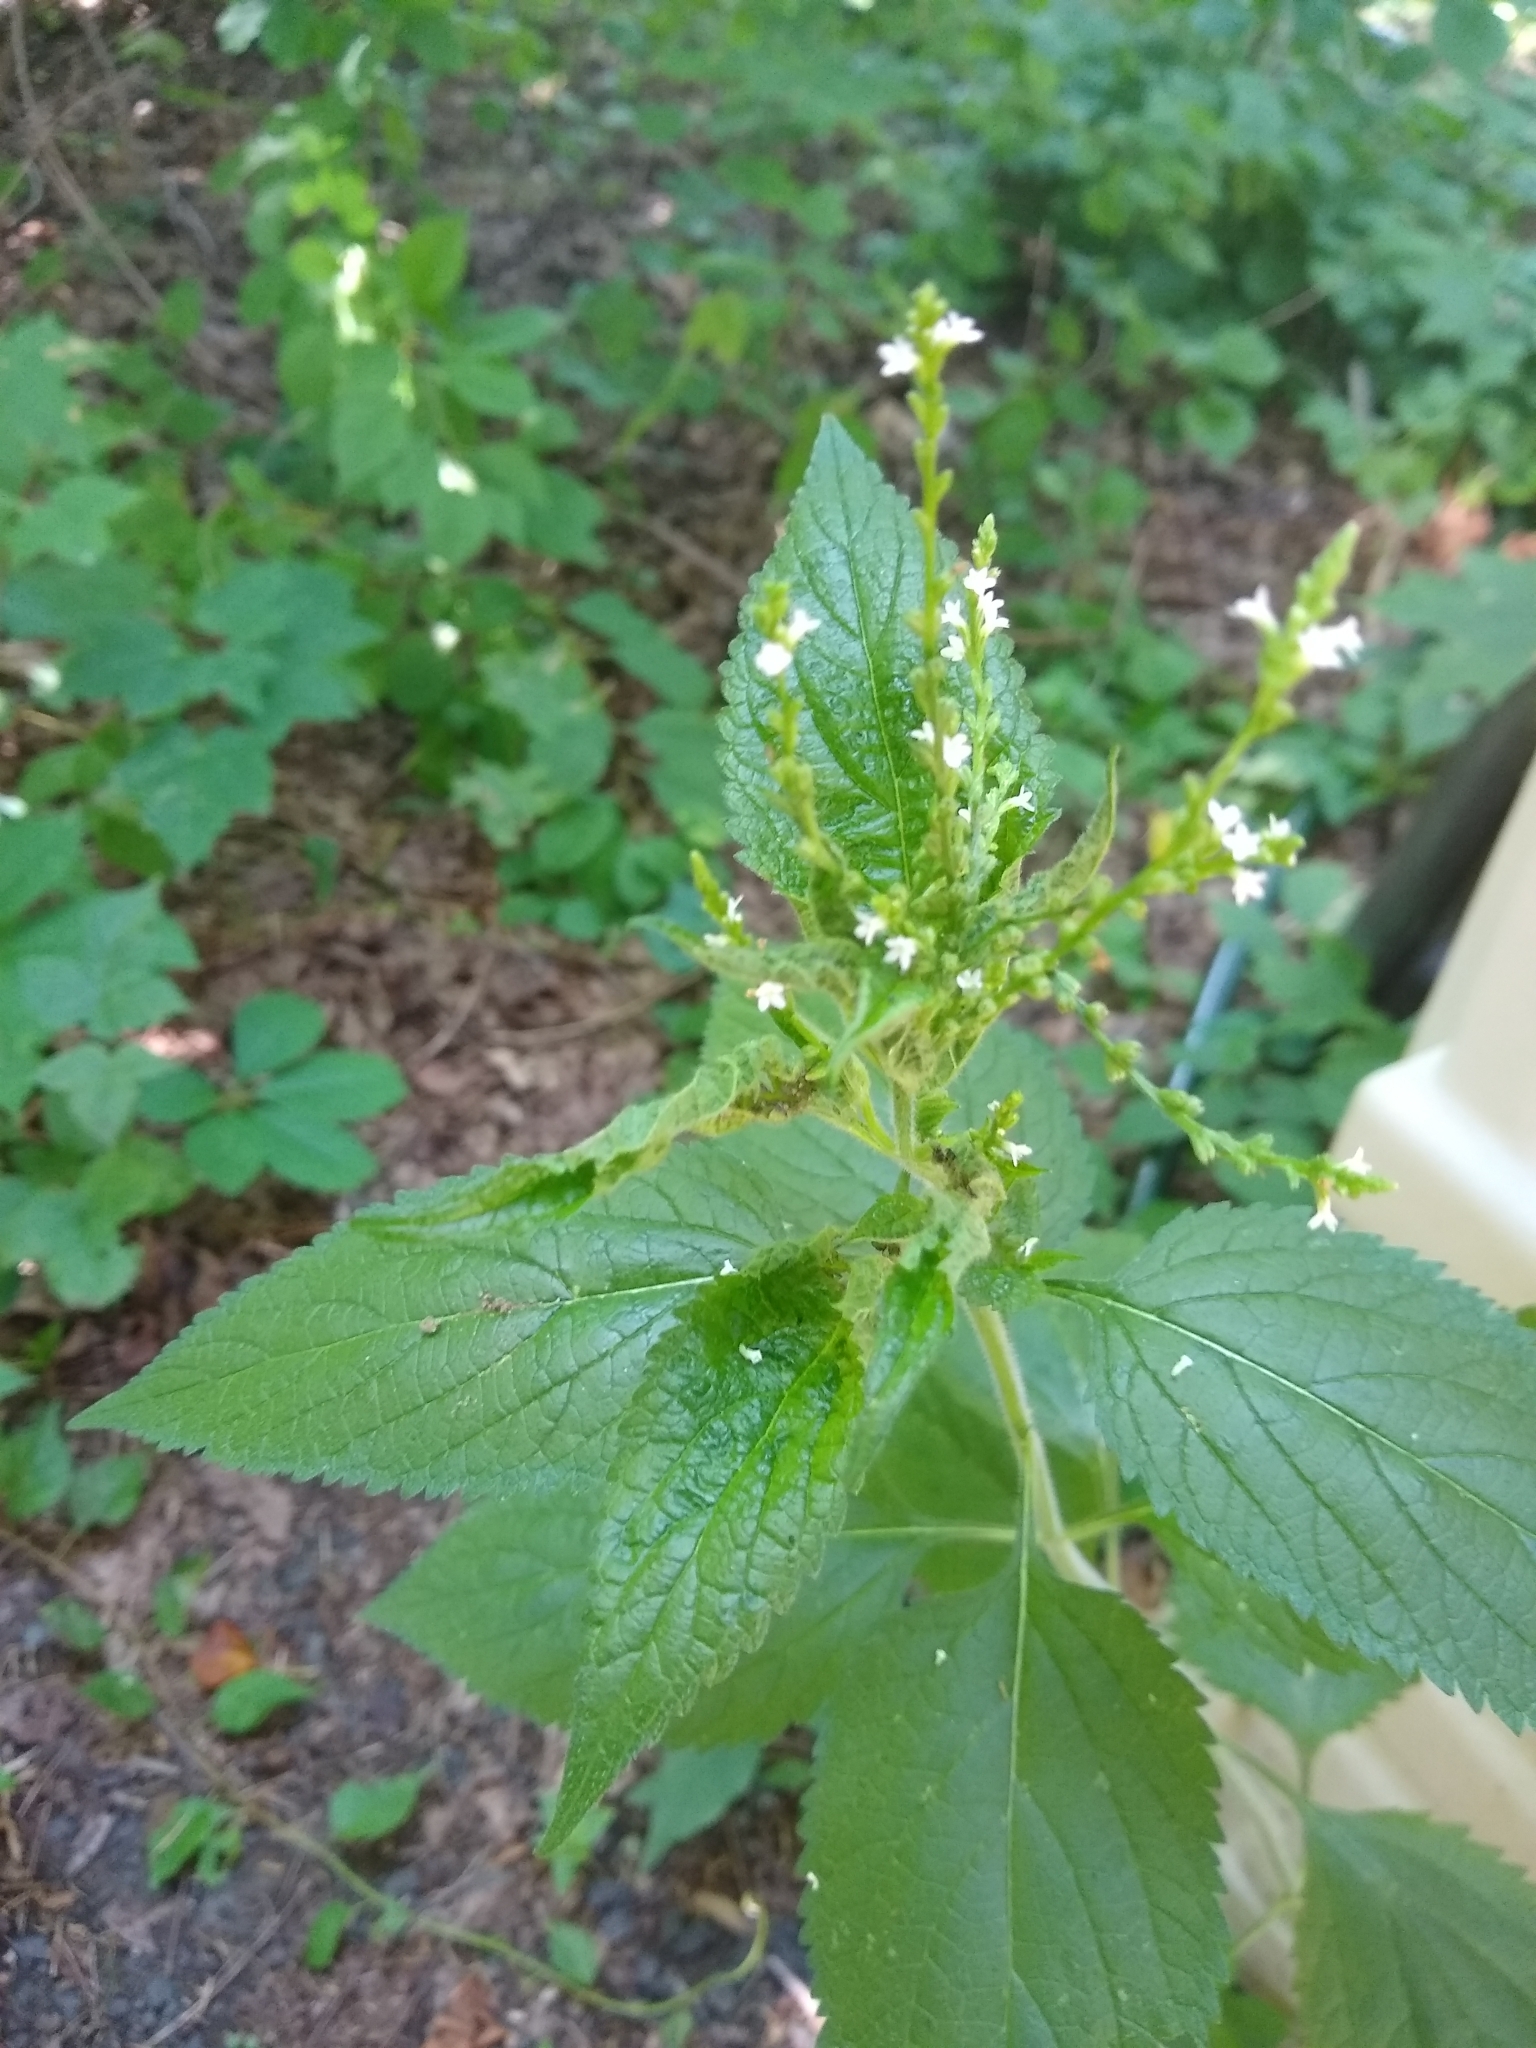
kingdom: Plantae
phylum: Tracheophyta
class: Magnoliopsida
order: Lamiales
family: Verbenaceae
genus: Verbena
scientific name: Verbena urticifolia
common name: Nettle-leaved vervain
